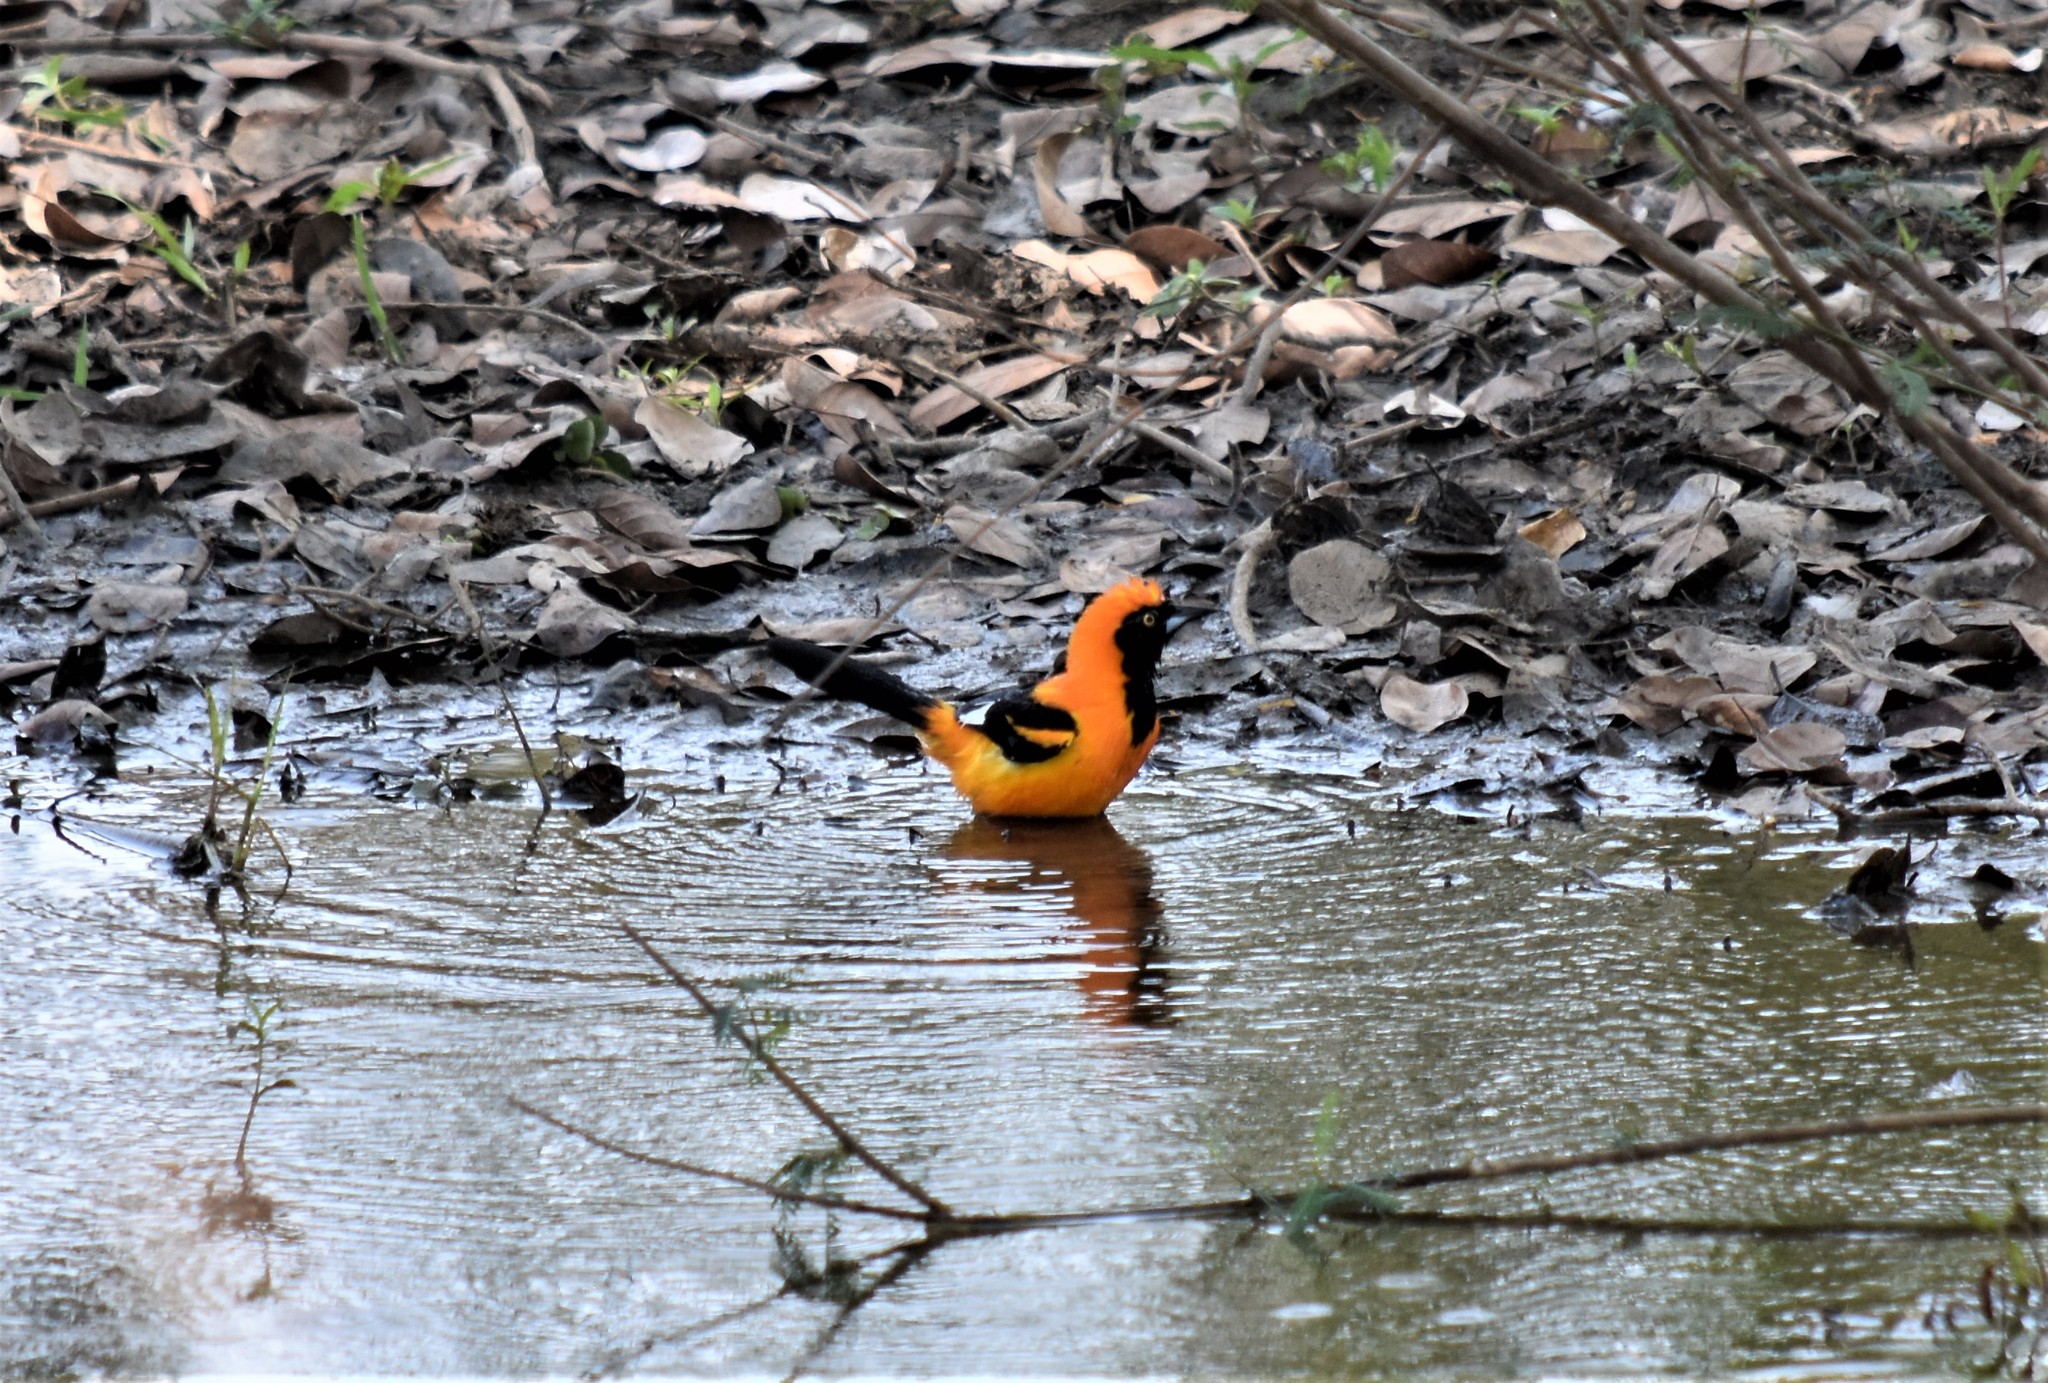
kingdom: Animalia
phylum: Chordata
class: Aves
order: Passeriformes
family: Icteridae
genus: Icterus
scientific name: Icterus icterus
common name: Venezuelan troupial
